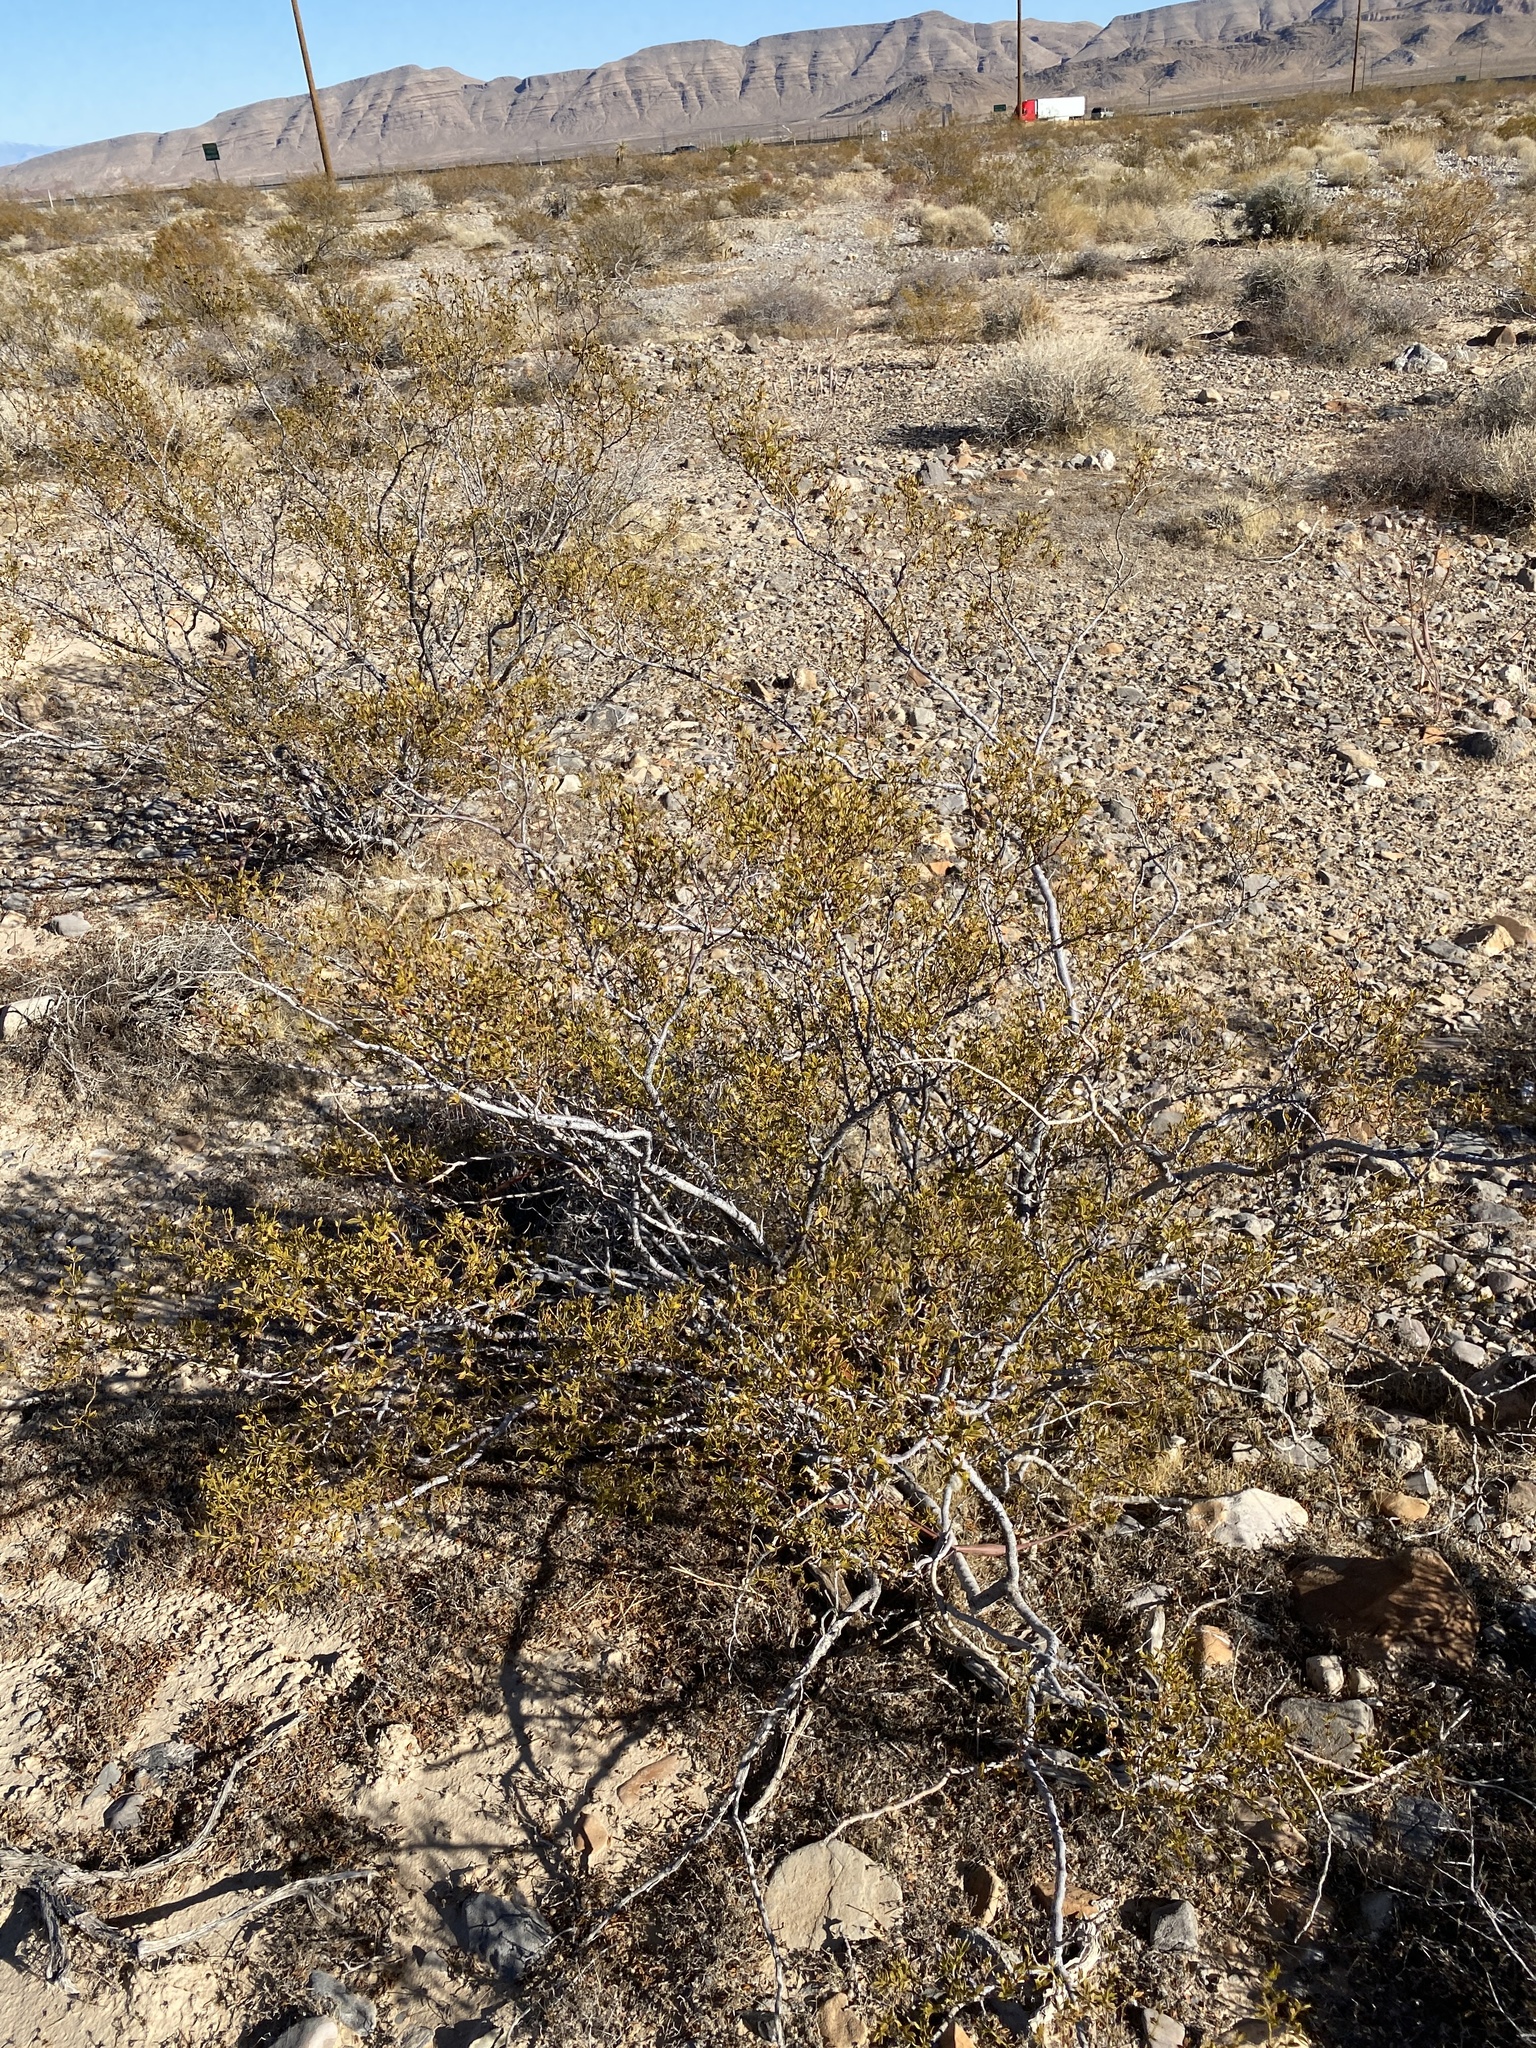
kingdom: Plantae
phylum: Tracheophyta
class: Magnoliopsida
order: Zygophyllales
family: Zygophyllaceae
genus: Larrea
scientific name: Larrea tridentata
